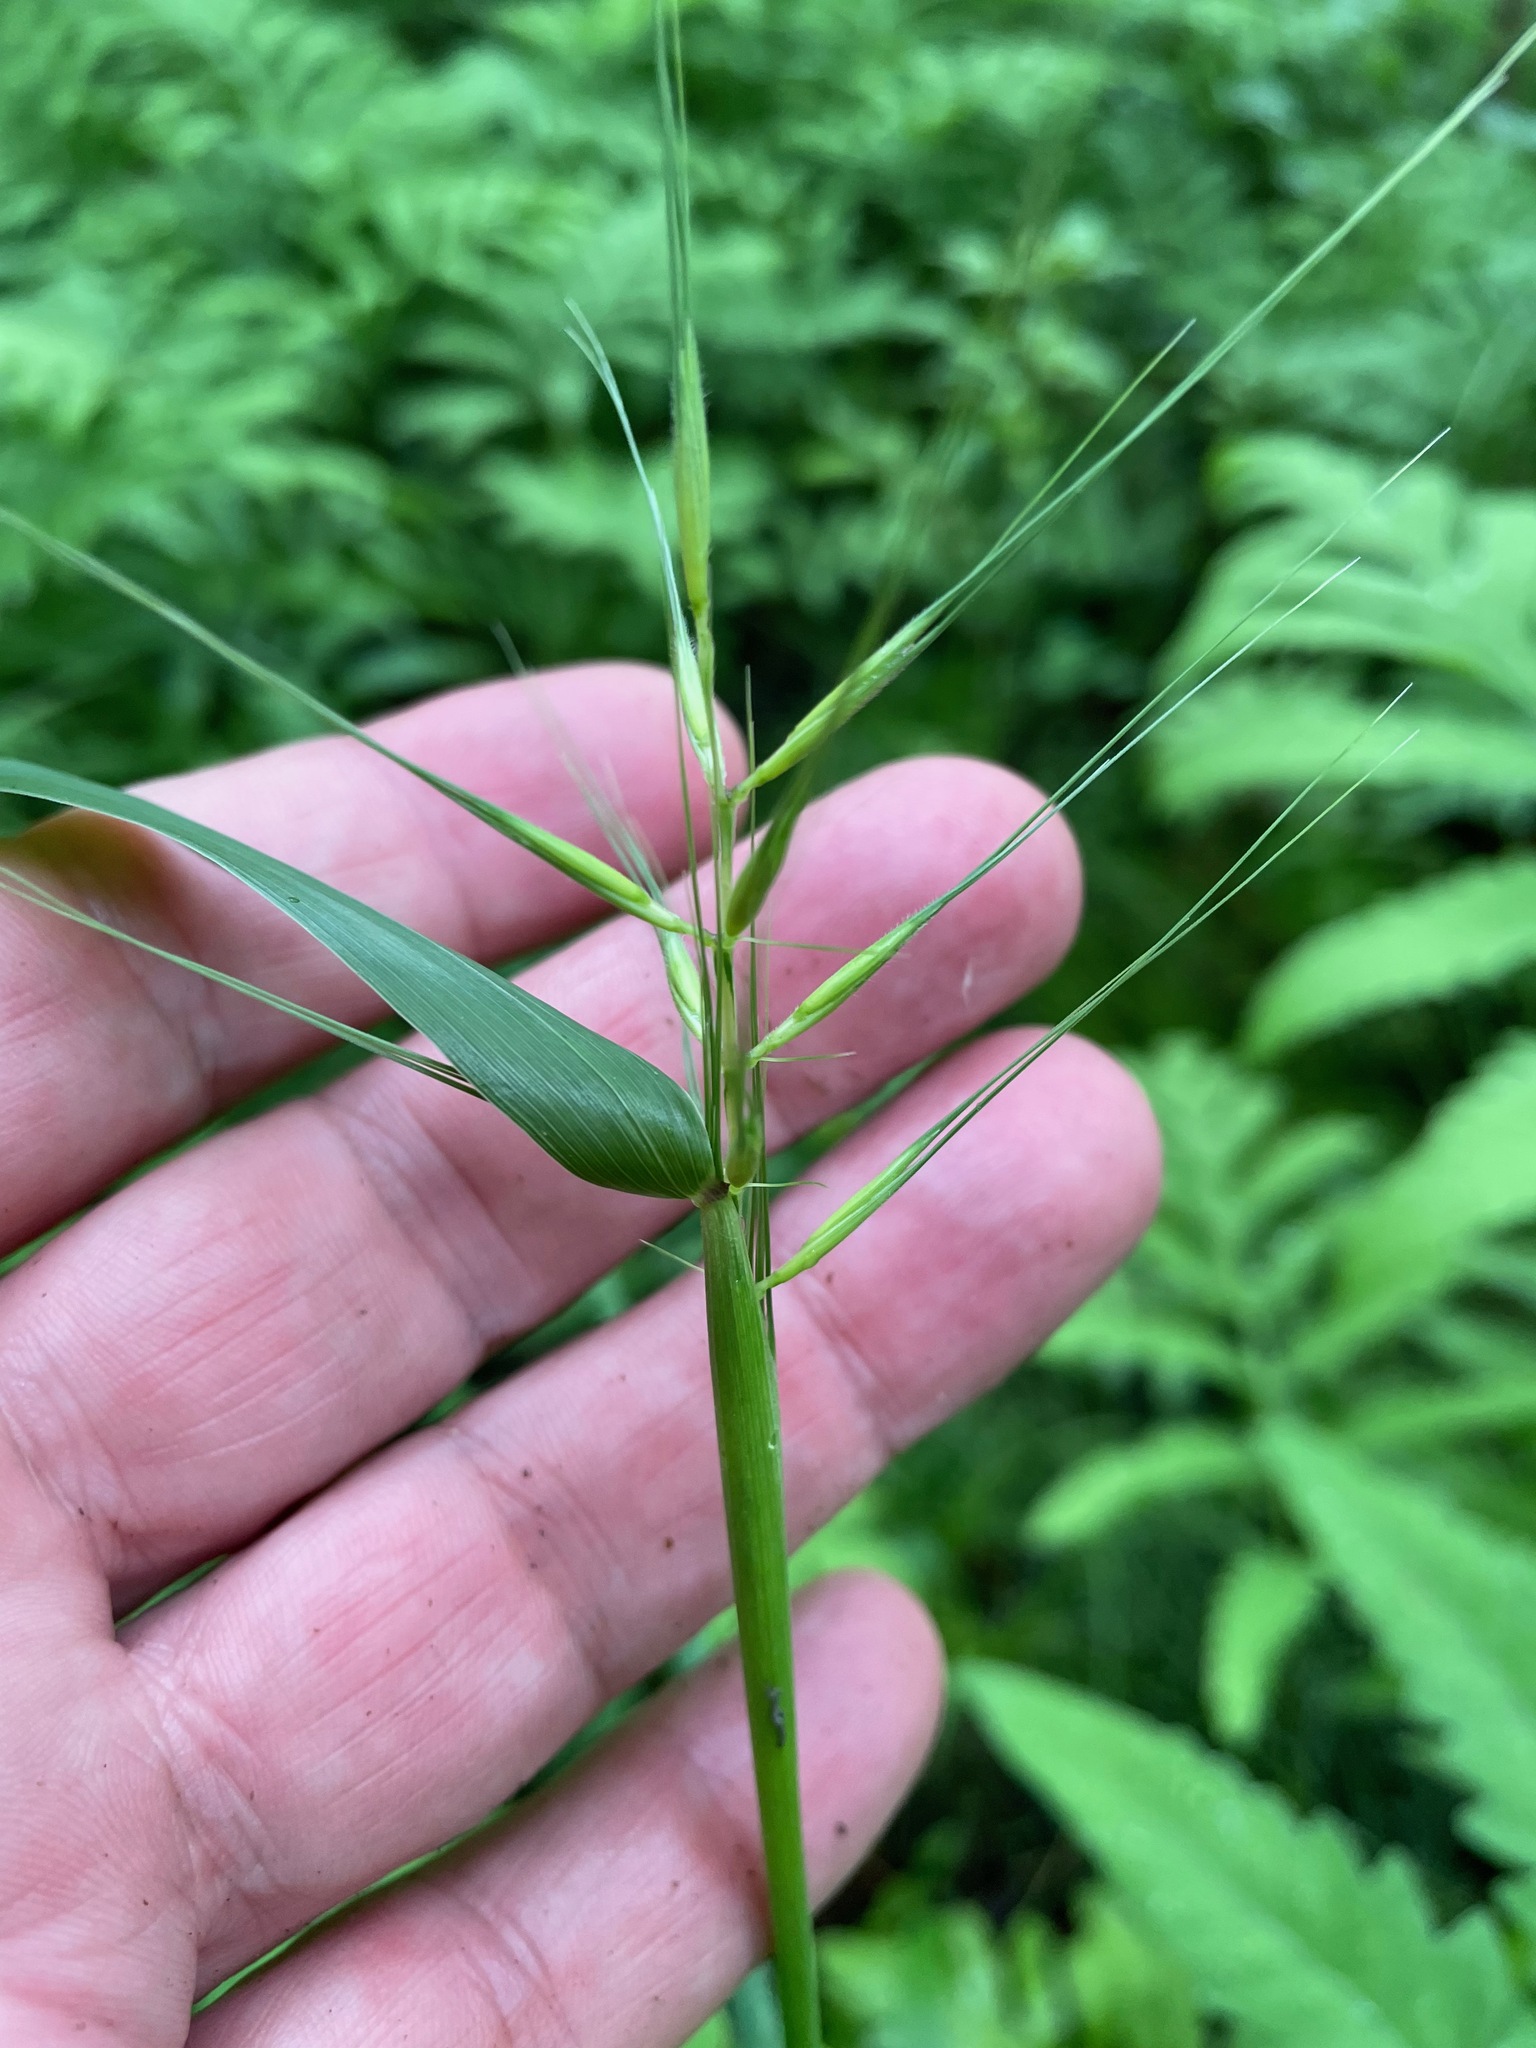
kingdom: Plantae
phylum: Tracheophyta
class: Liliopsida
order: Poales
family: Poaceae
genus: Elymus
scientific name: Elymus hystrix
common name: Bottlebrush grass
